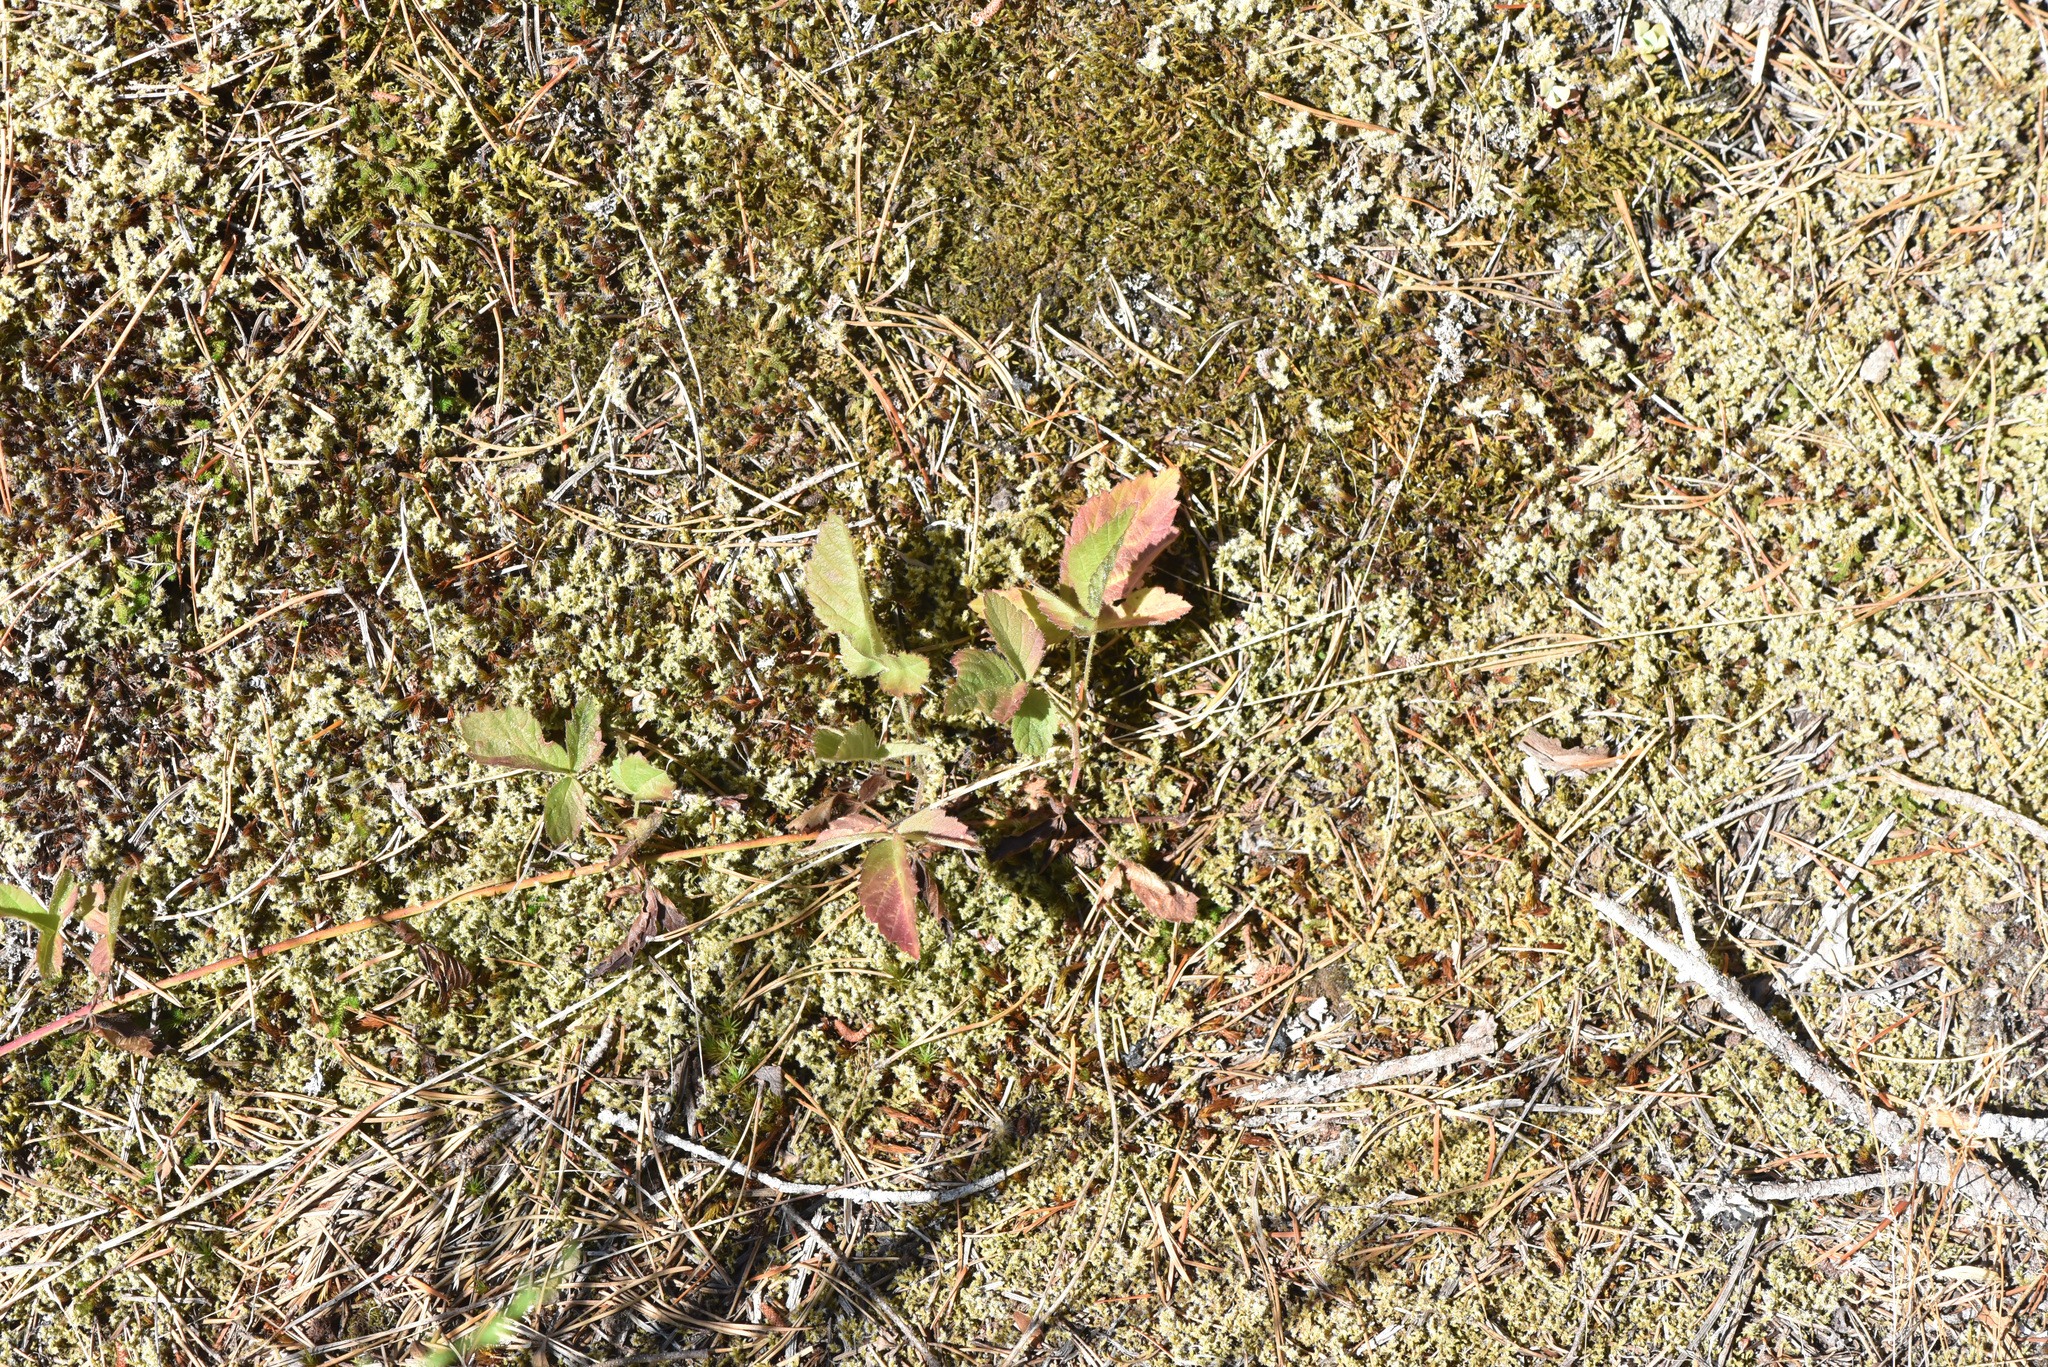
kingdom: Plantae
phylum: Tracheophyta
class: Magnoliopsida
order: Rosales
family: Rosaceae
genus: Rubus
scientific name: Rubus ursinus
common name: Pacific blackberry
